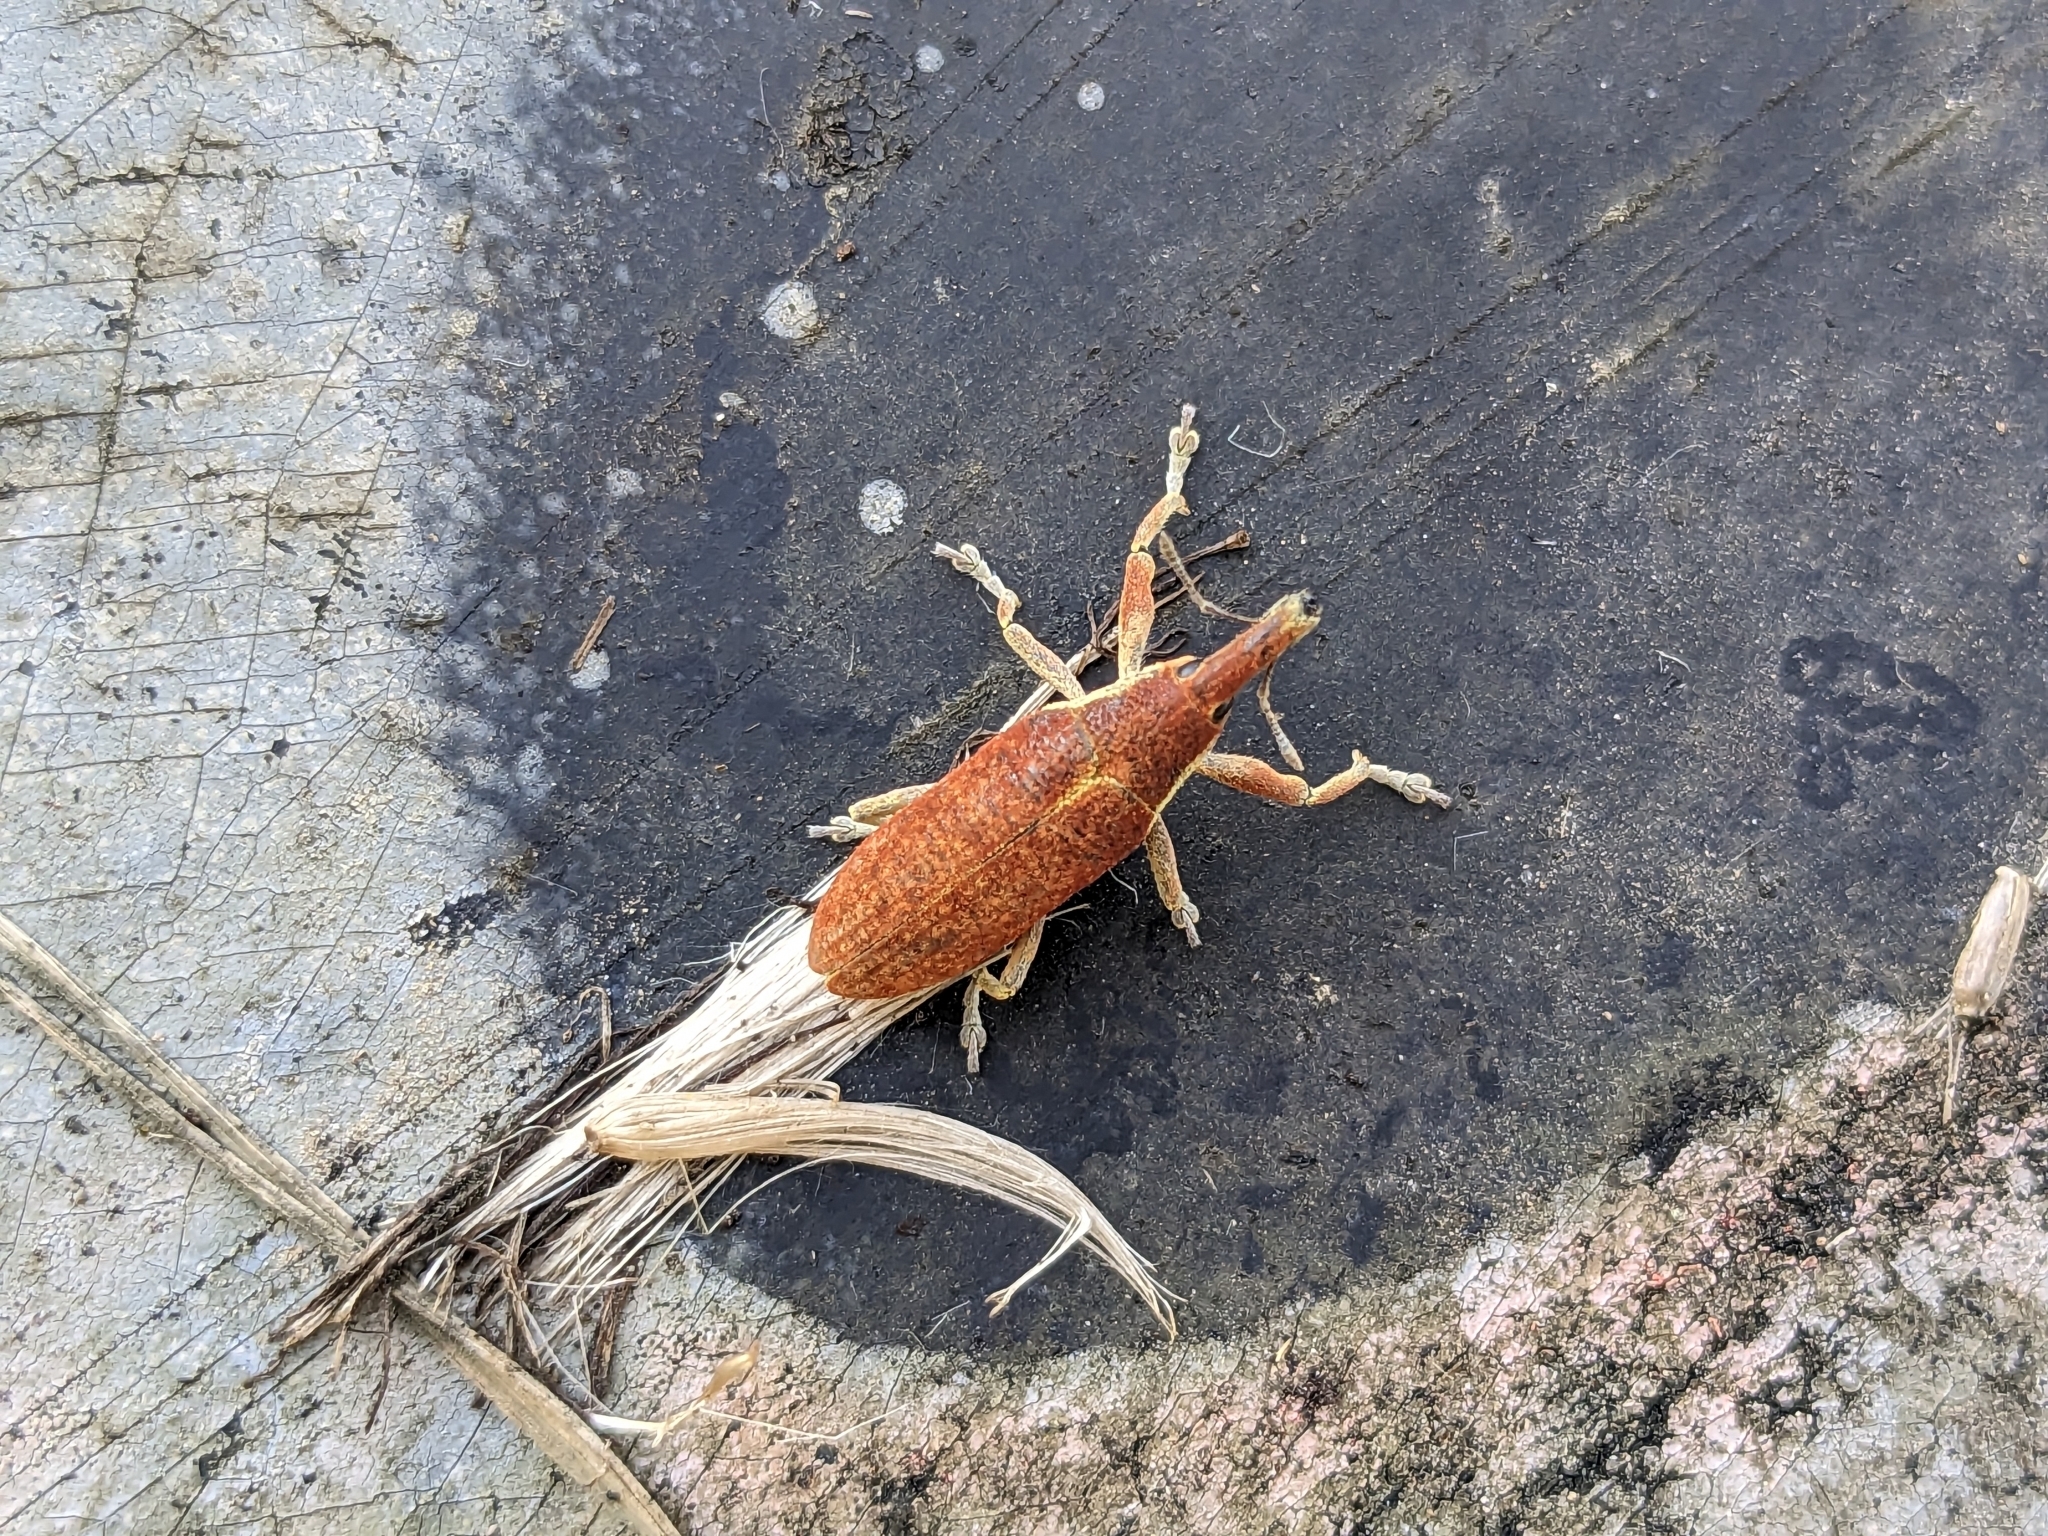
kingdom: Animalia
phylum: Arthropoda
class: Insecta
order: Coleoptera
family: Curculionidae
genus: Lixus
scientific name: Lixus pulverulentus
